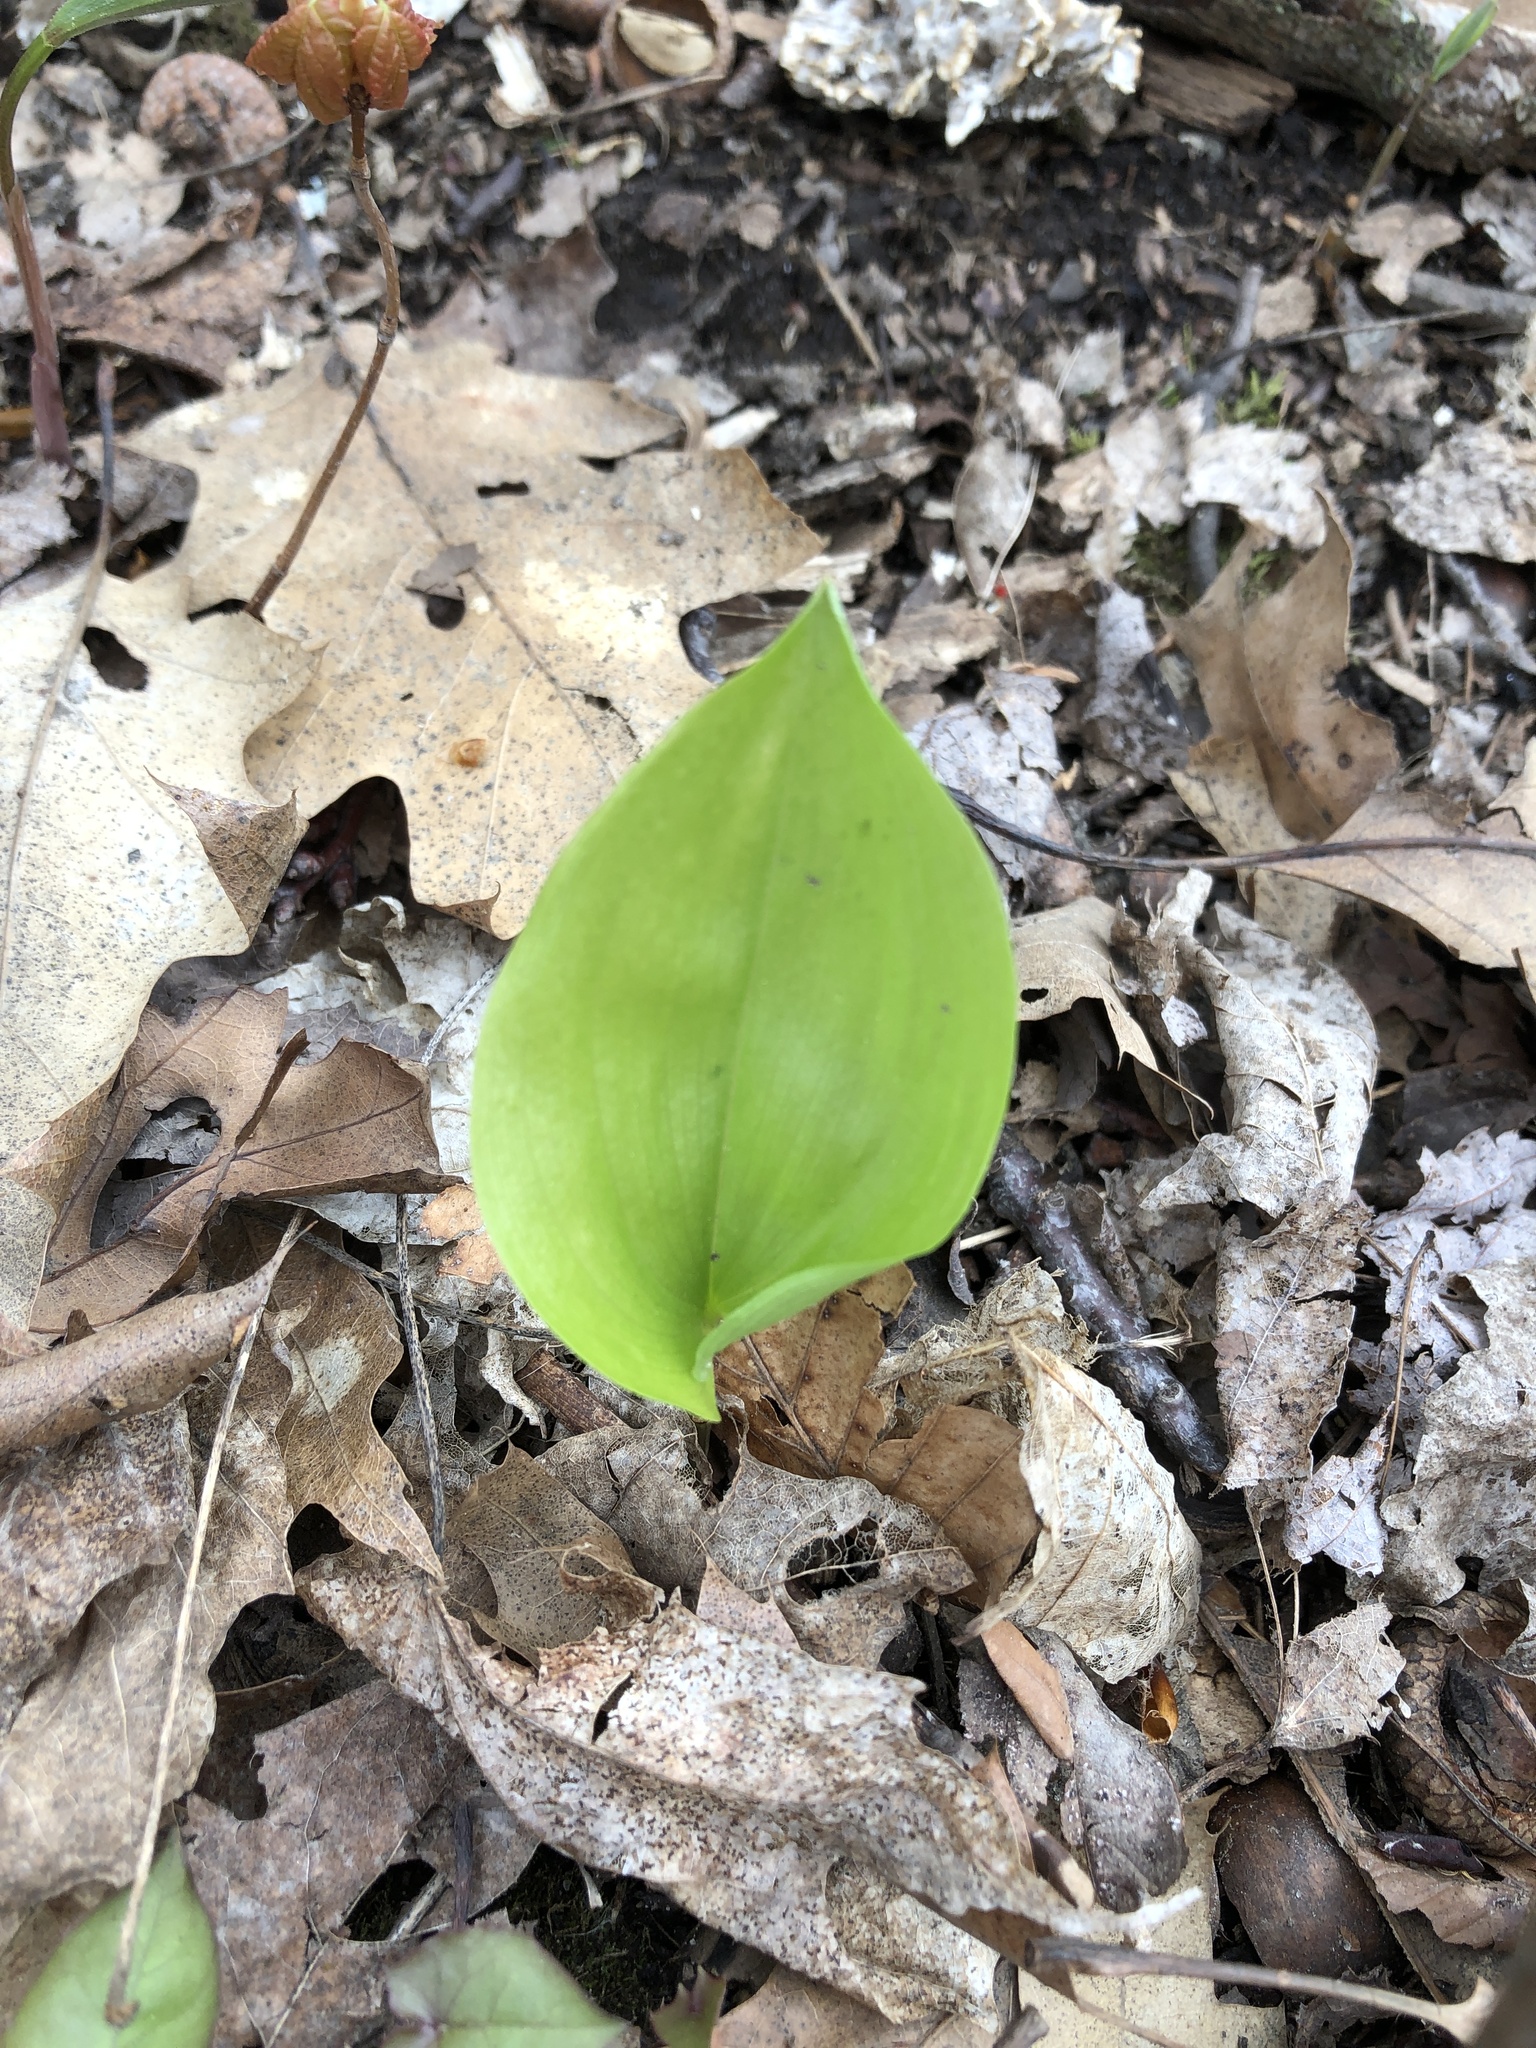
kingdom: Plantae
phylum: Tracheophyta
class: Liliopsida
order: Asparagales
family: Asparagaceae
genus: Maianthemum
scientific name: Maianthemum canadense
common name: False lily-of-the-valley
